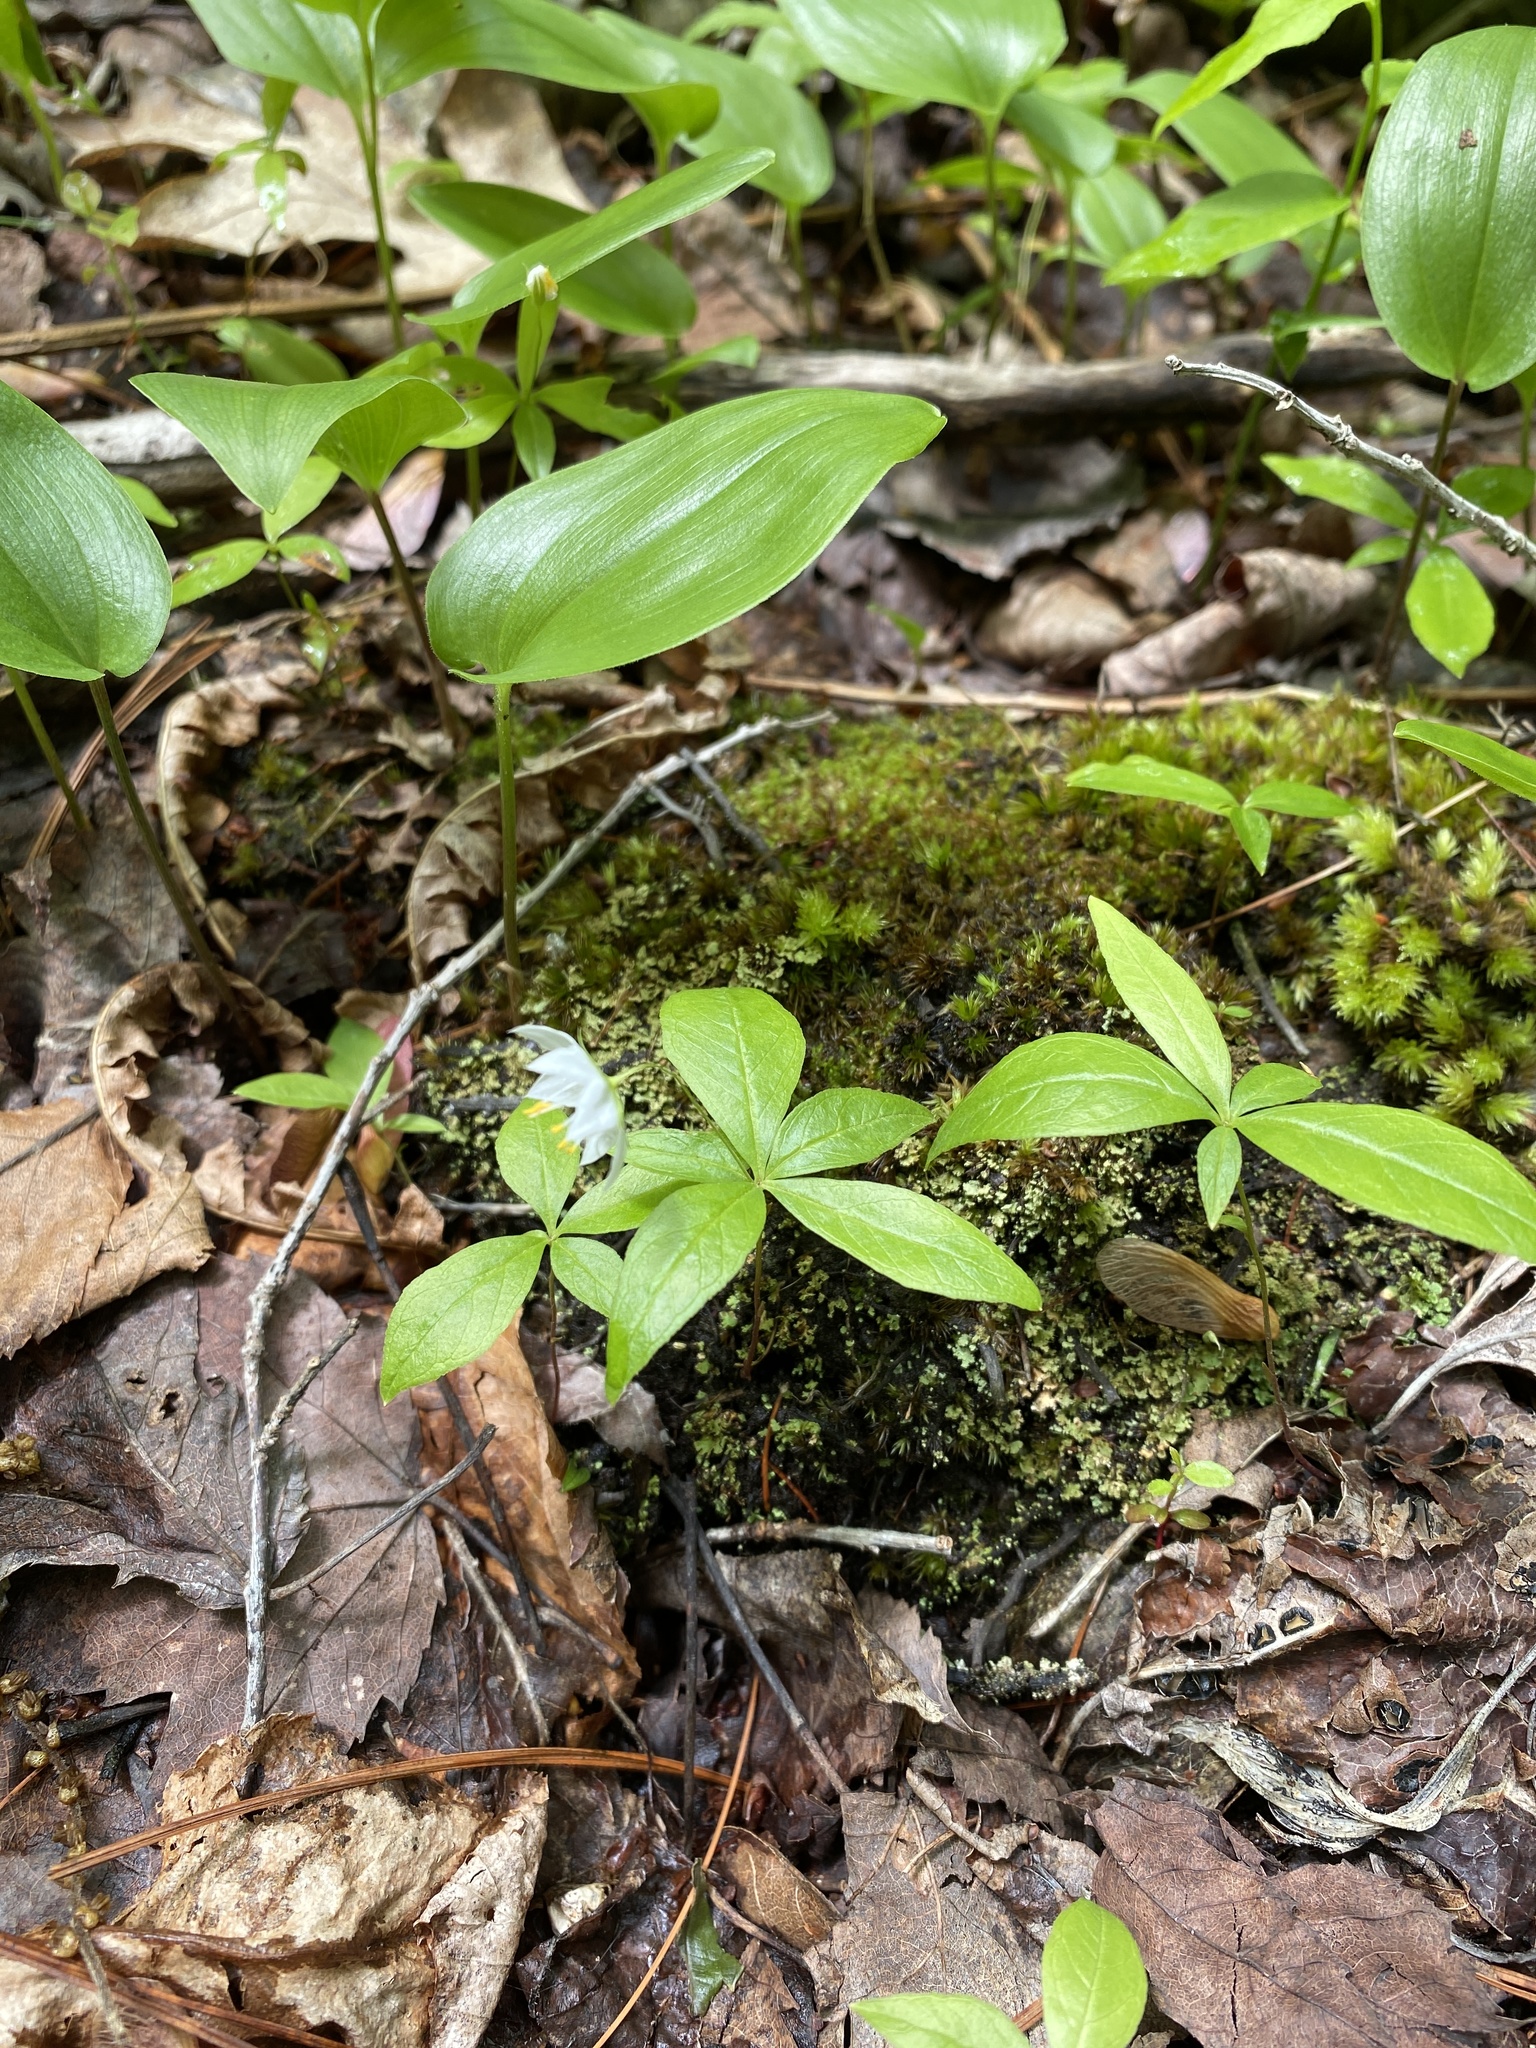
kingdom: Plantae
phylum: Tracheophyta
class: Magnoliopsida
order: Ericales
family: Primulaceae
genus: Lysimachia
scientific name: Lysimachia borealis
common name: American starflower
